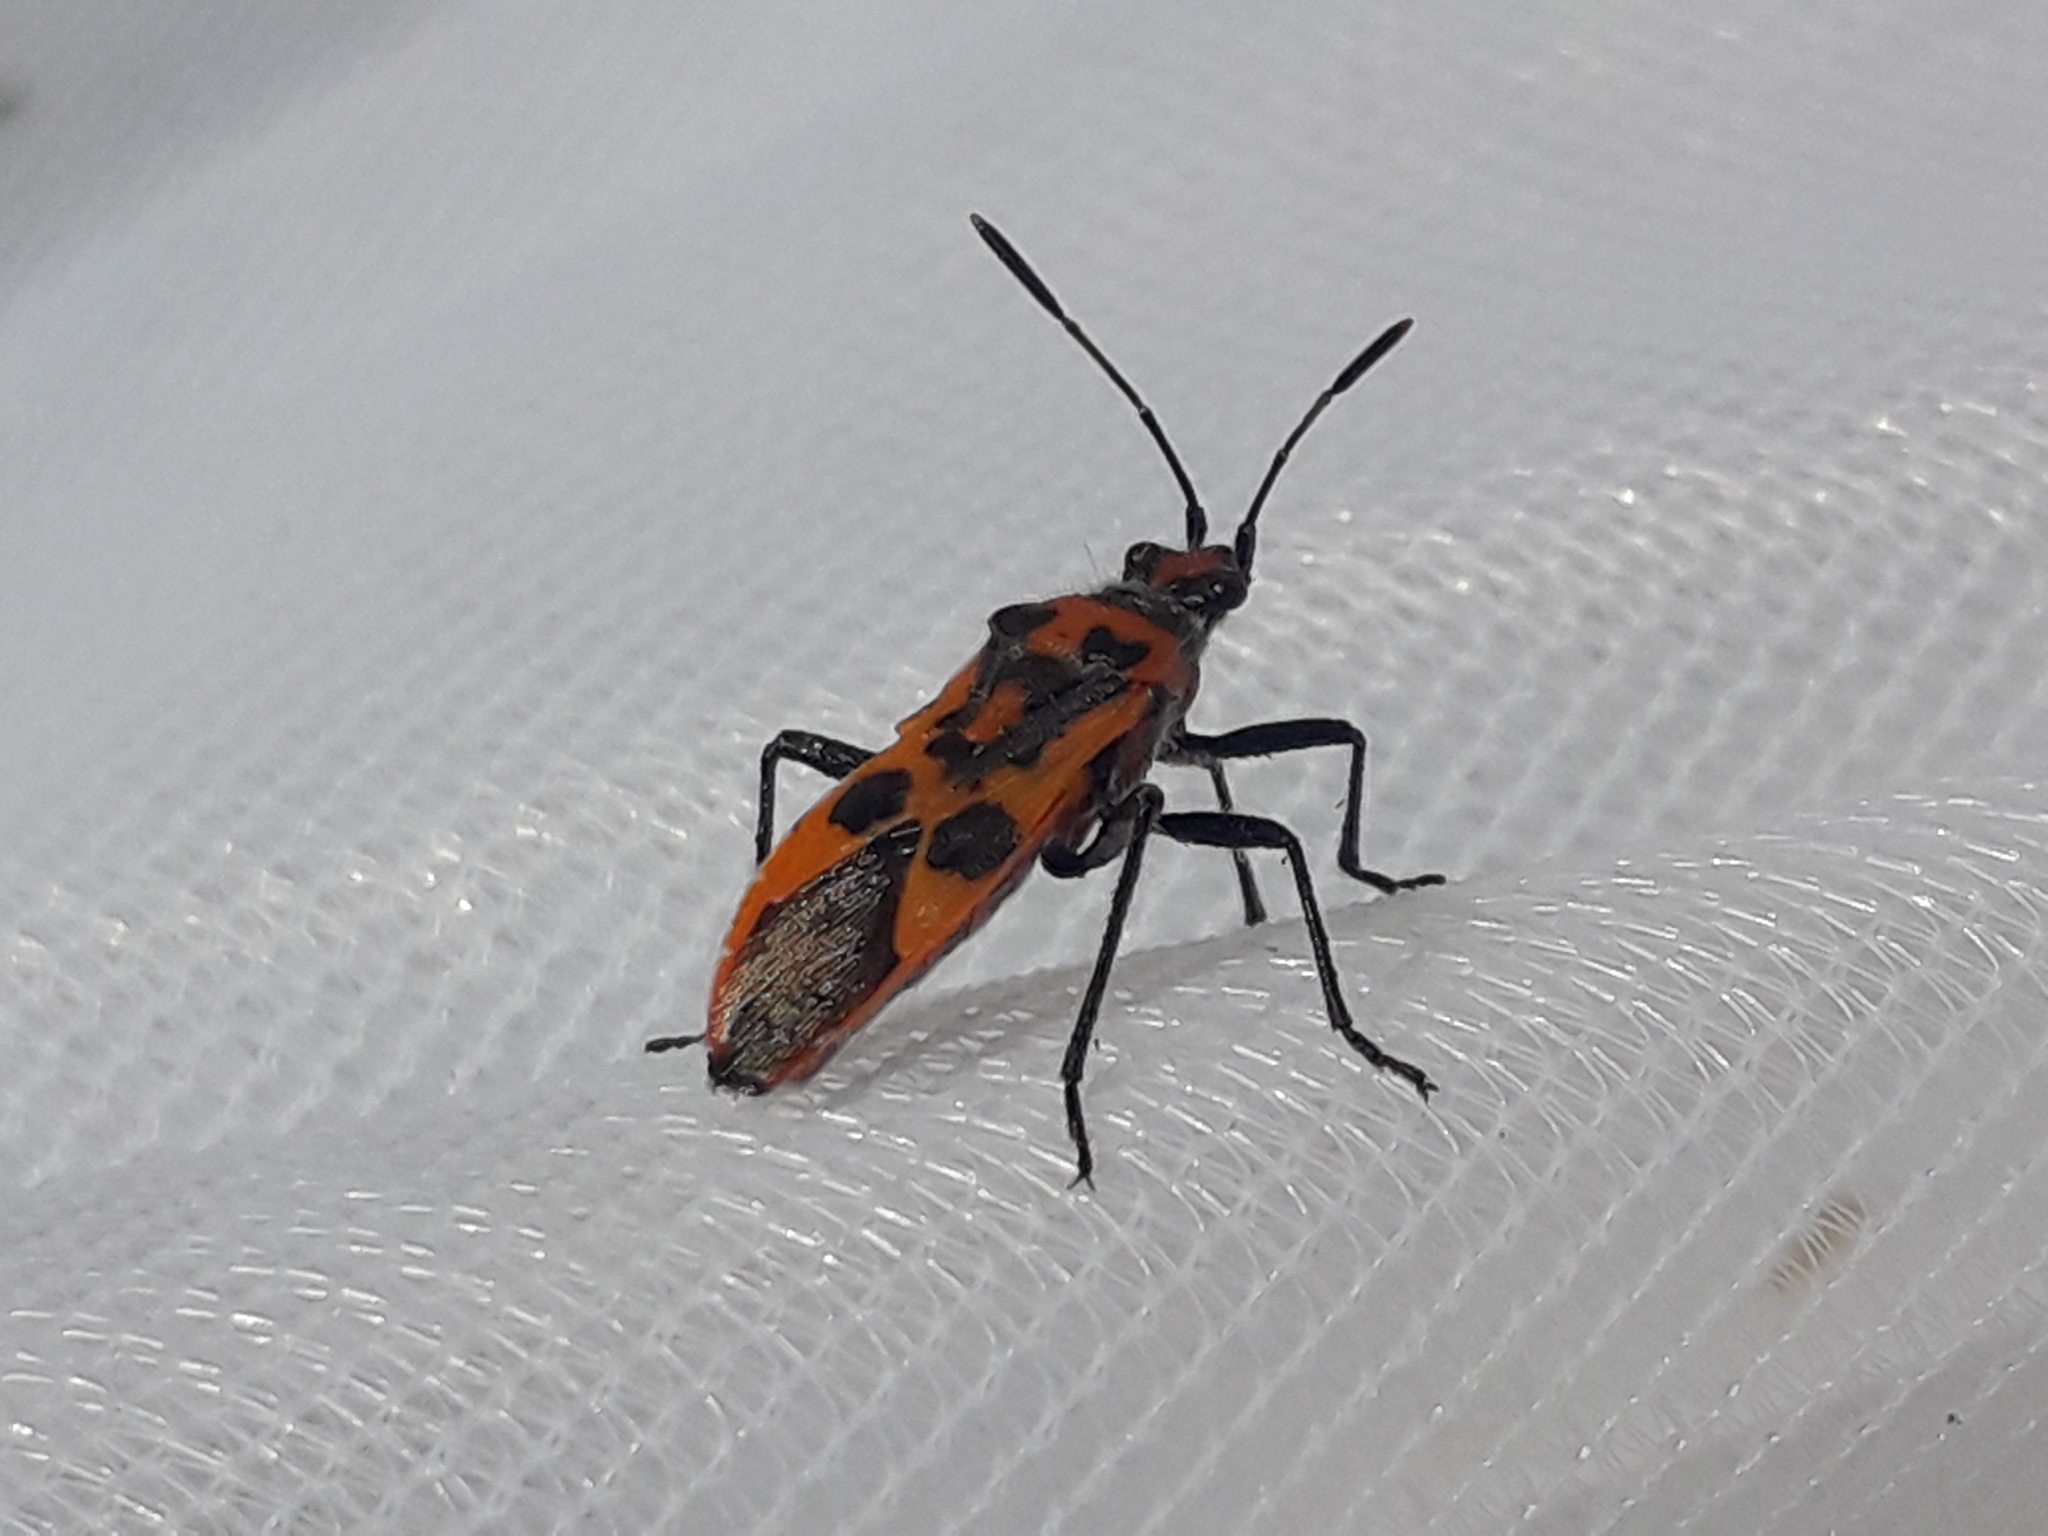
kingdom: Animalia
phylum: Arthropoda
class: Insecta
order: Hemiptera
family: Rhopalidae
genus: Corizus
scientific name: Corizus hyoscyami
